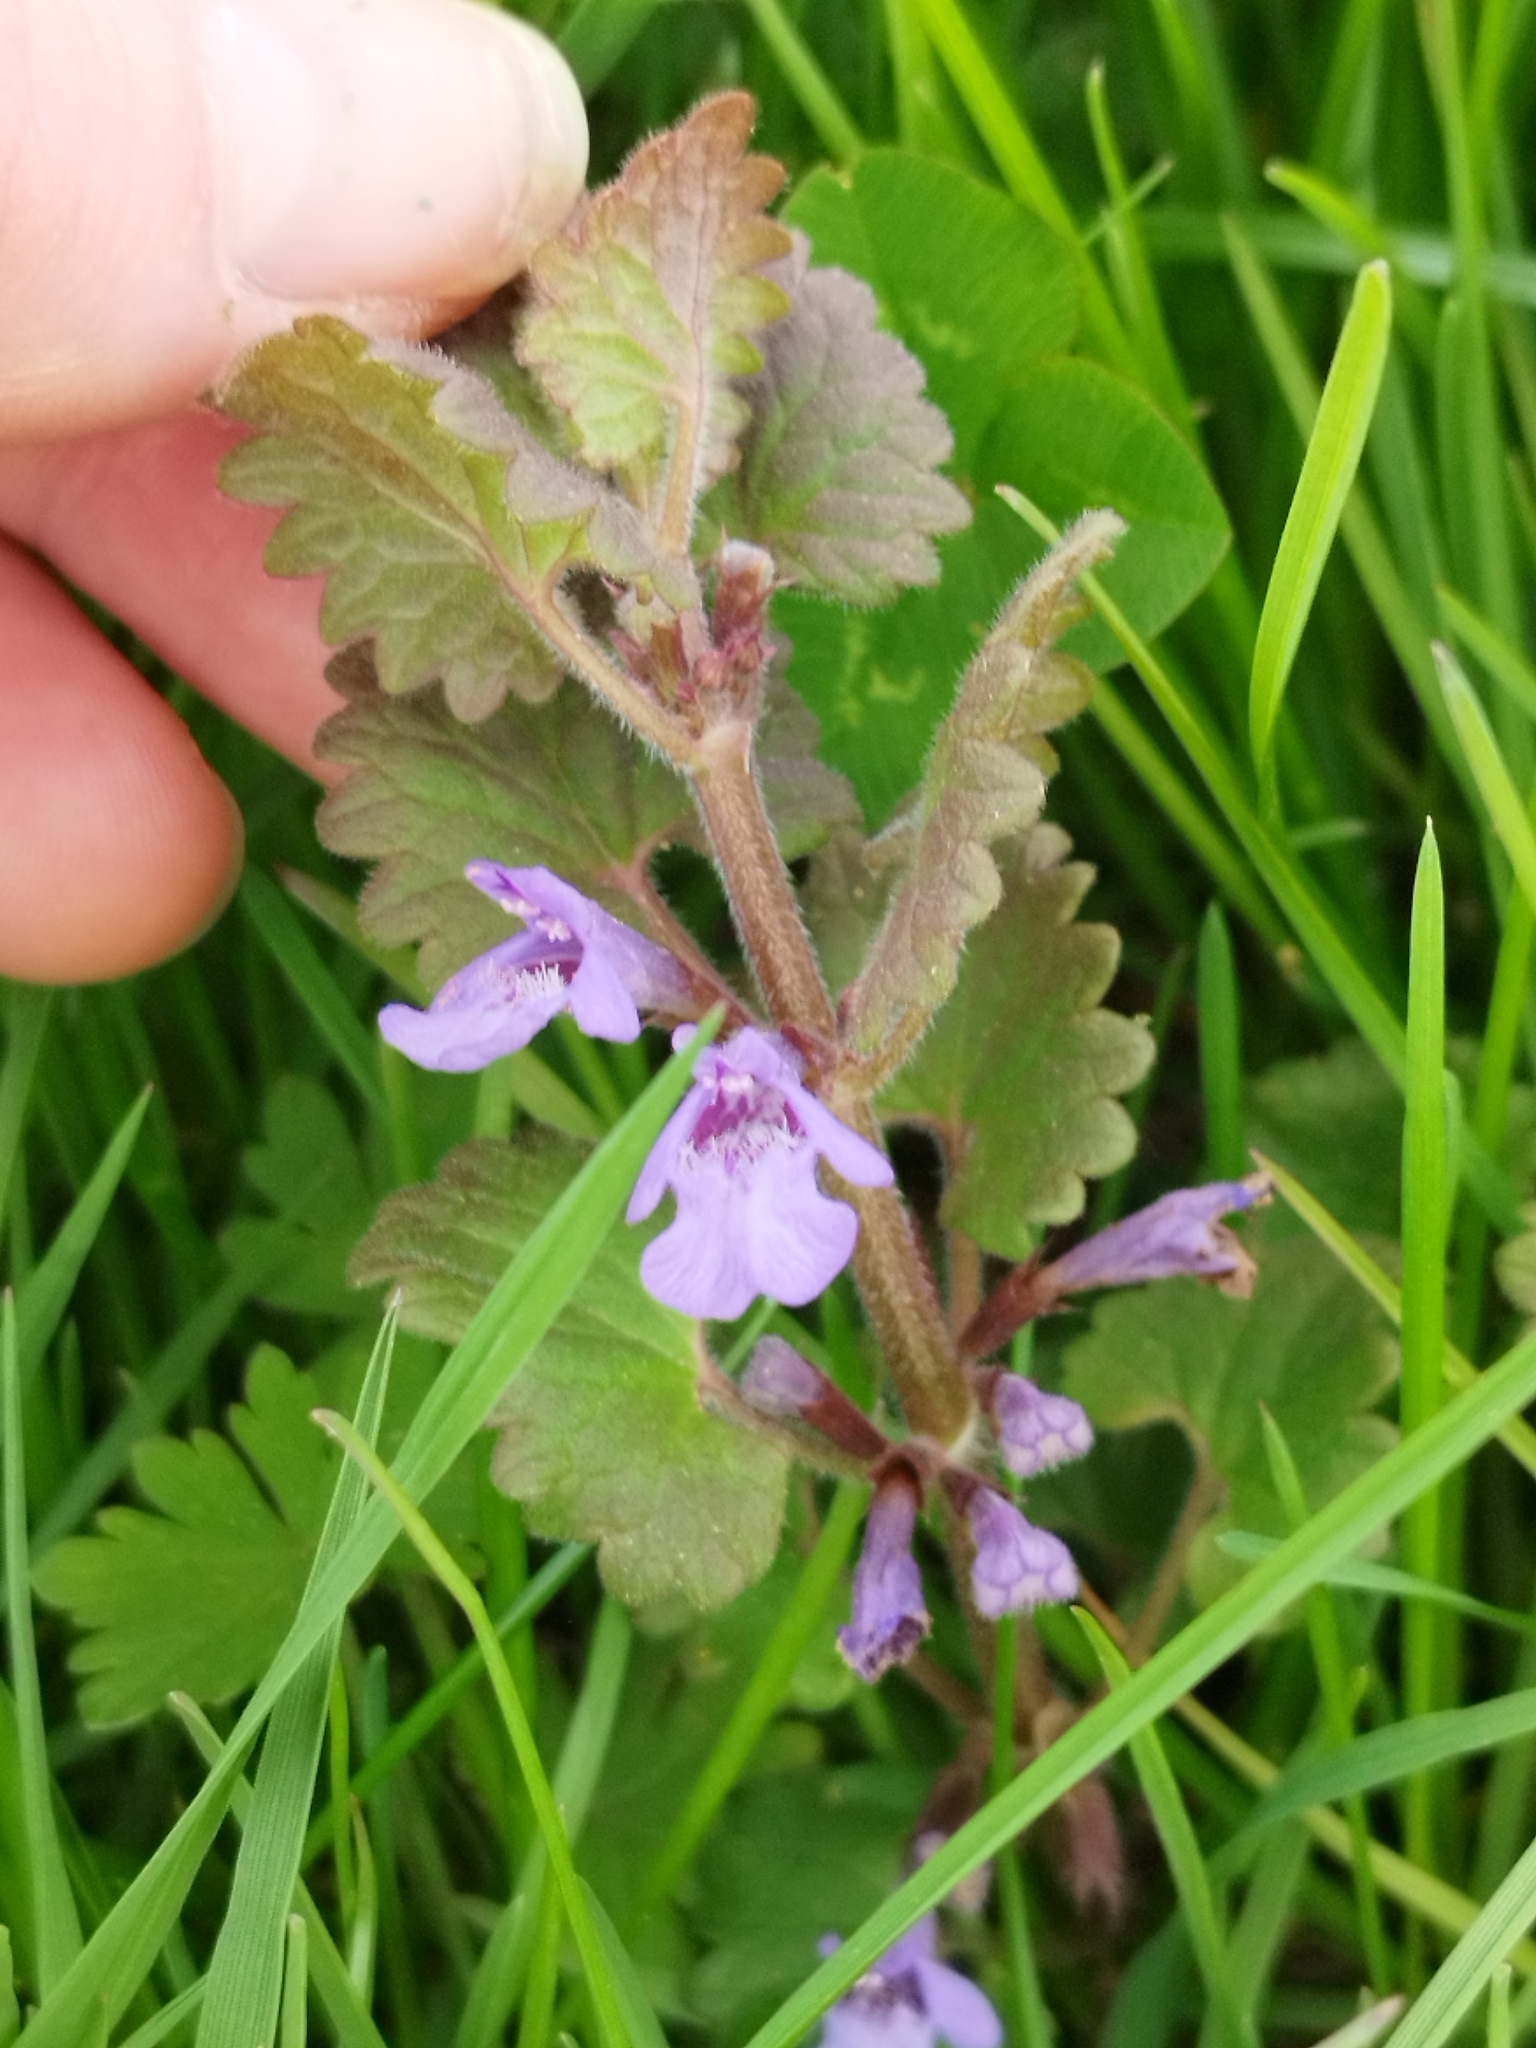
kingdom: Plantae
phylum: Tracheophyta
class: Magnoliopsida
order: Lamiales
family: Lamiaceae
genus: Glechoma
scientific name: Glechoma hederacea
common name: Ground ivy
